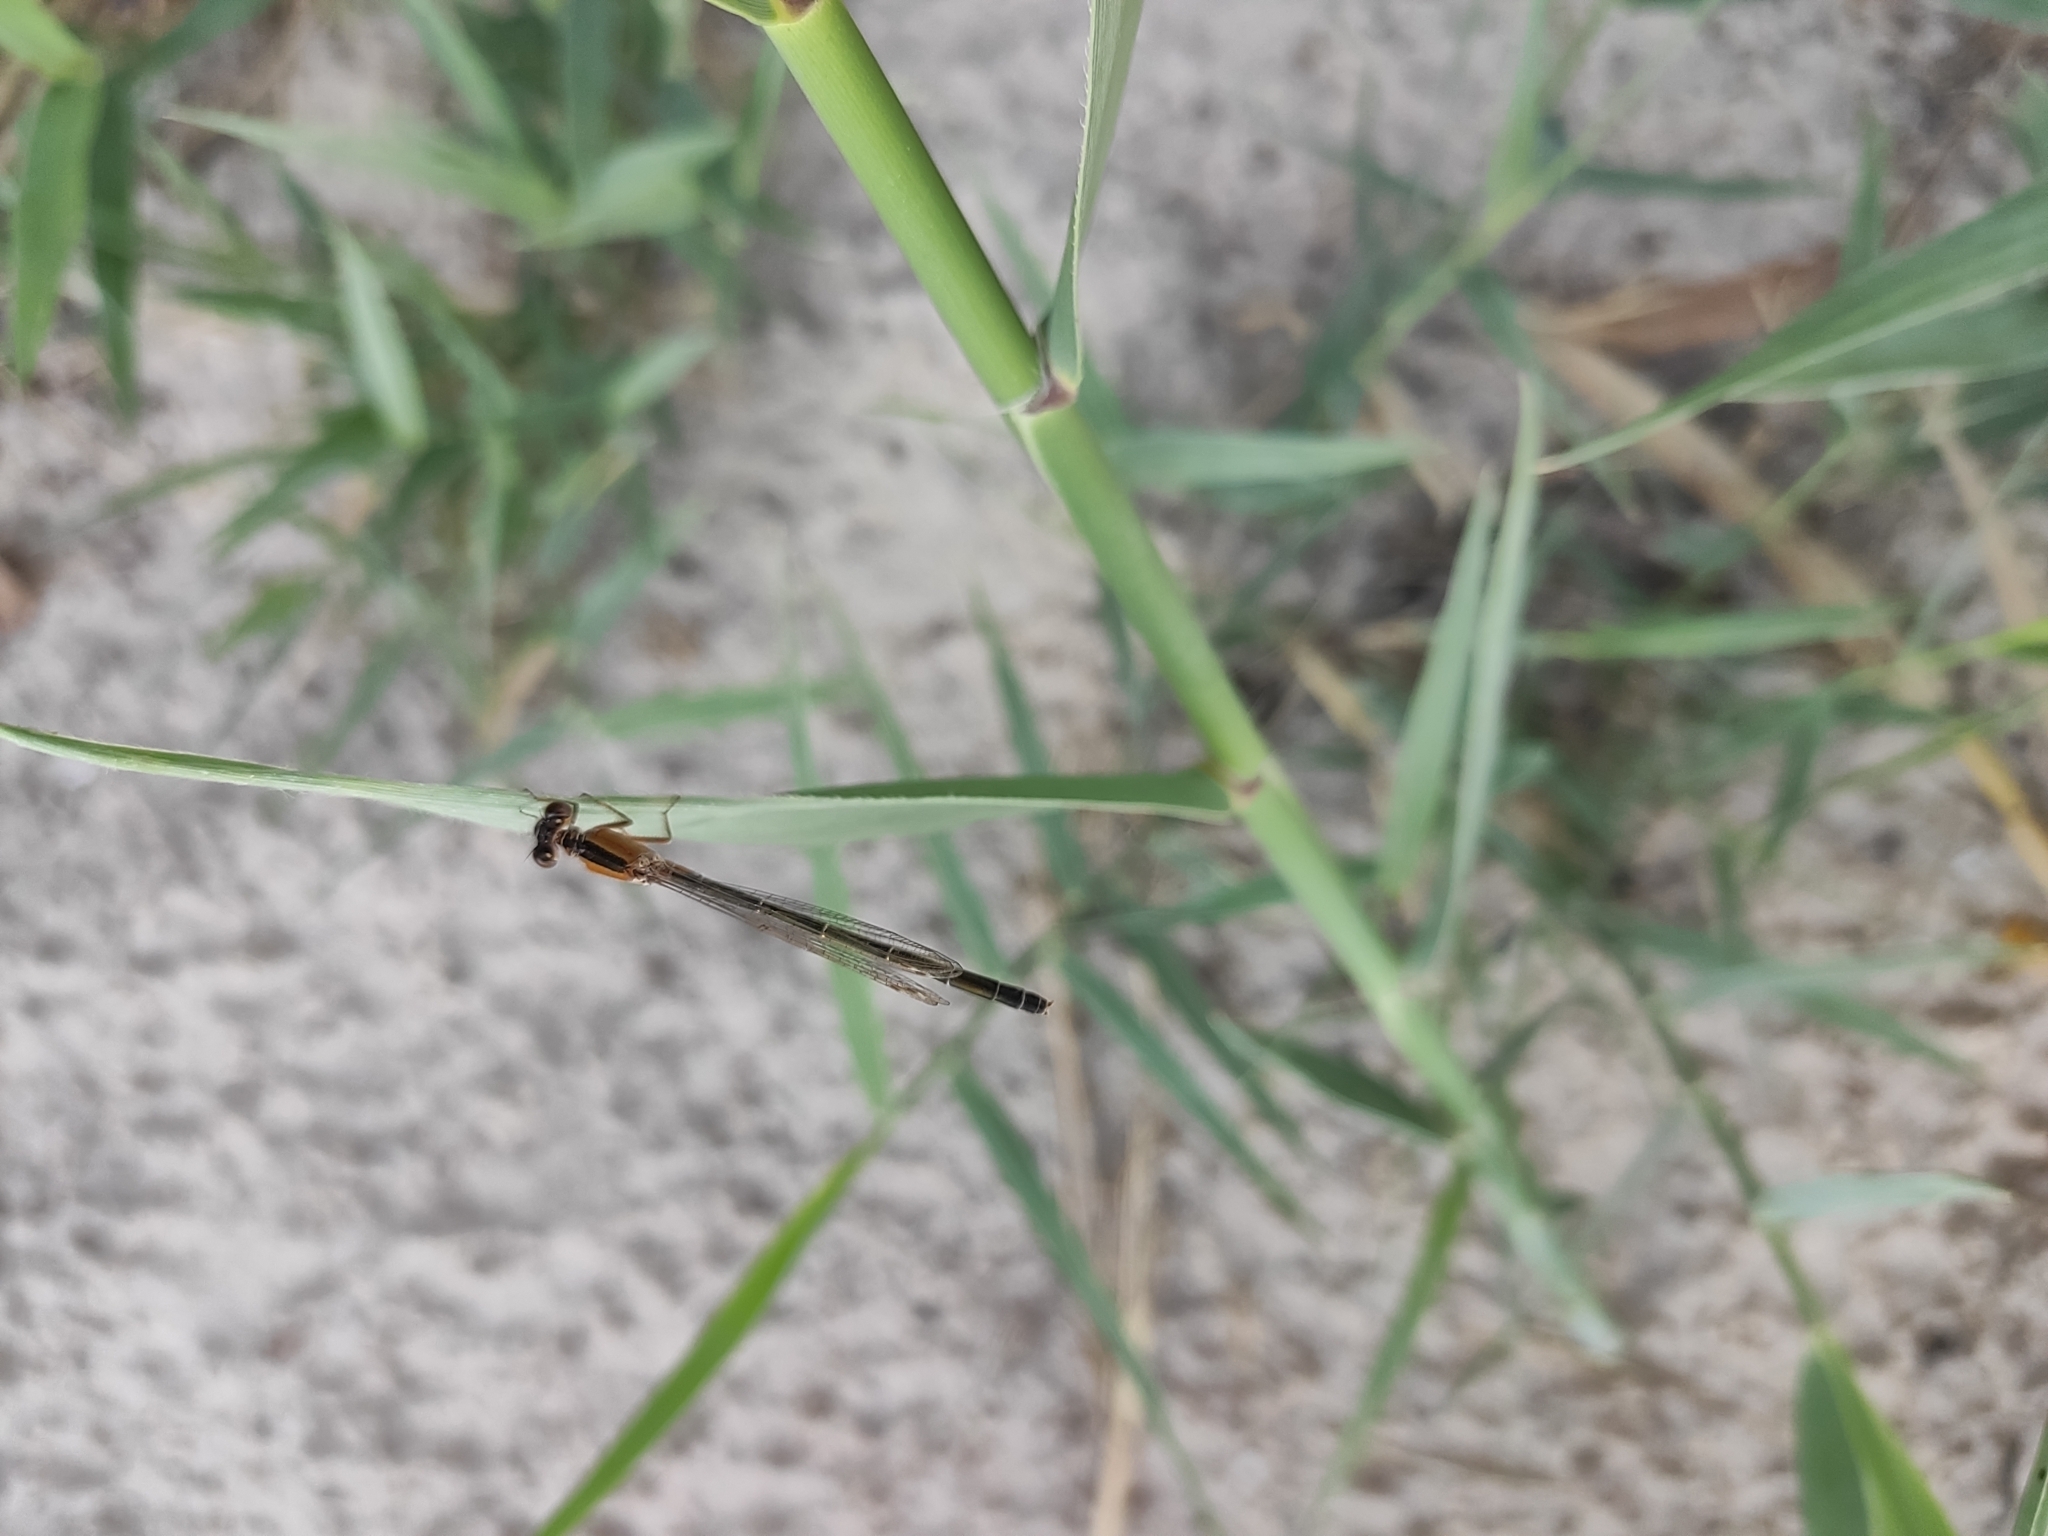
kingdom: Animalia
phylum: Arthropoda
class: Insecta
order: Odonata
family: Coenagrionidae
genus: Ischnura
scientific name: Ischnura fountaineae
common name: Oasis bluetail
